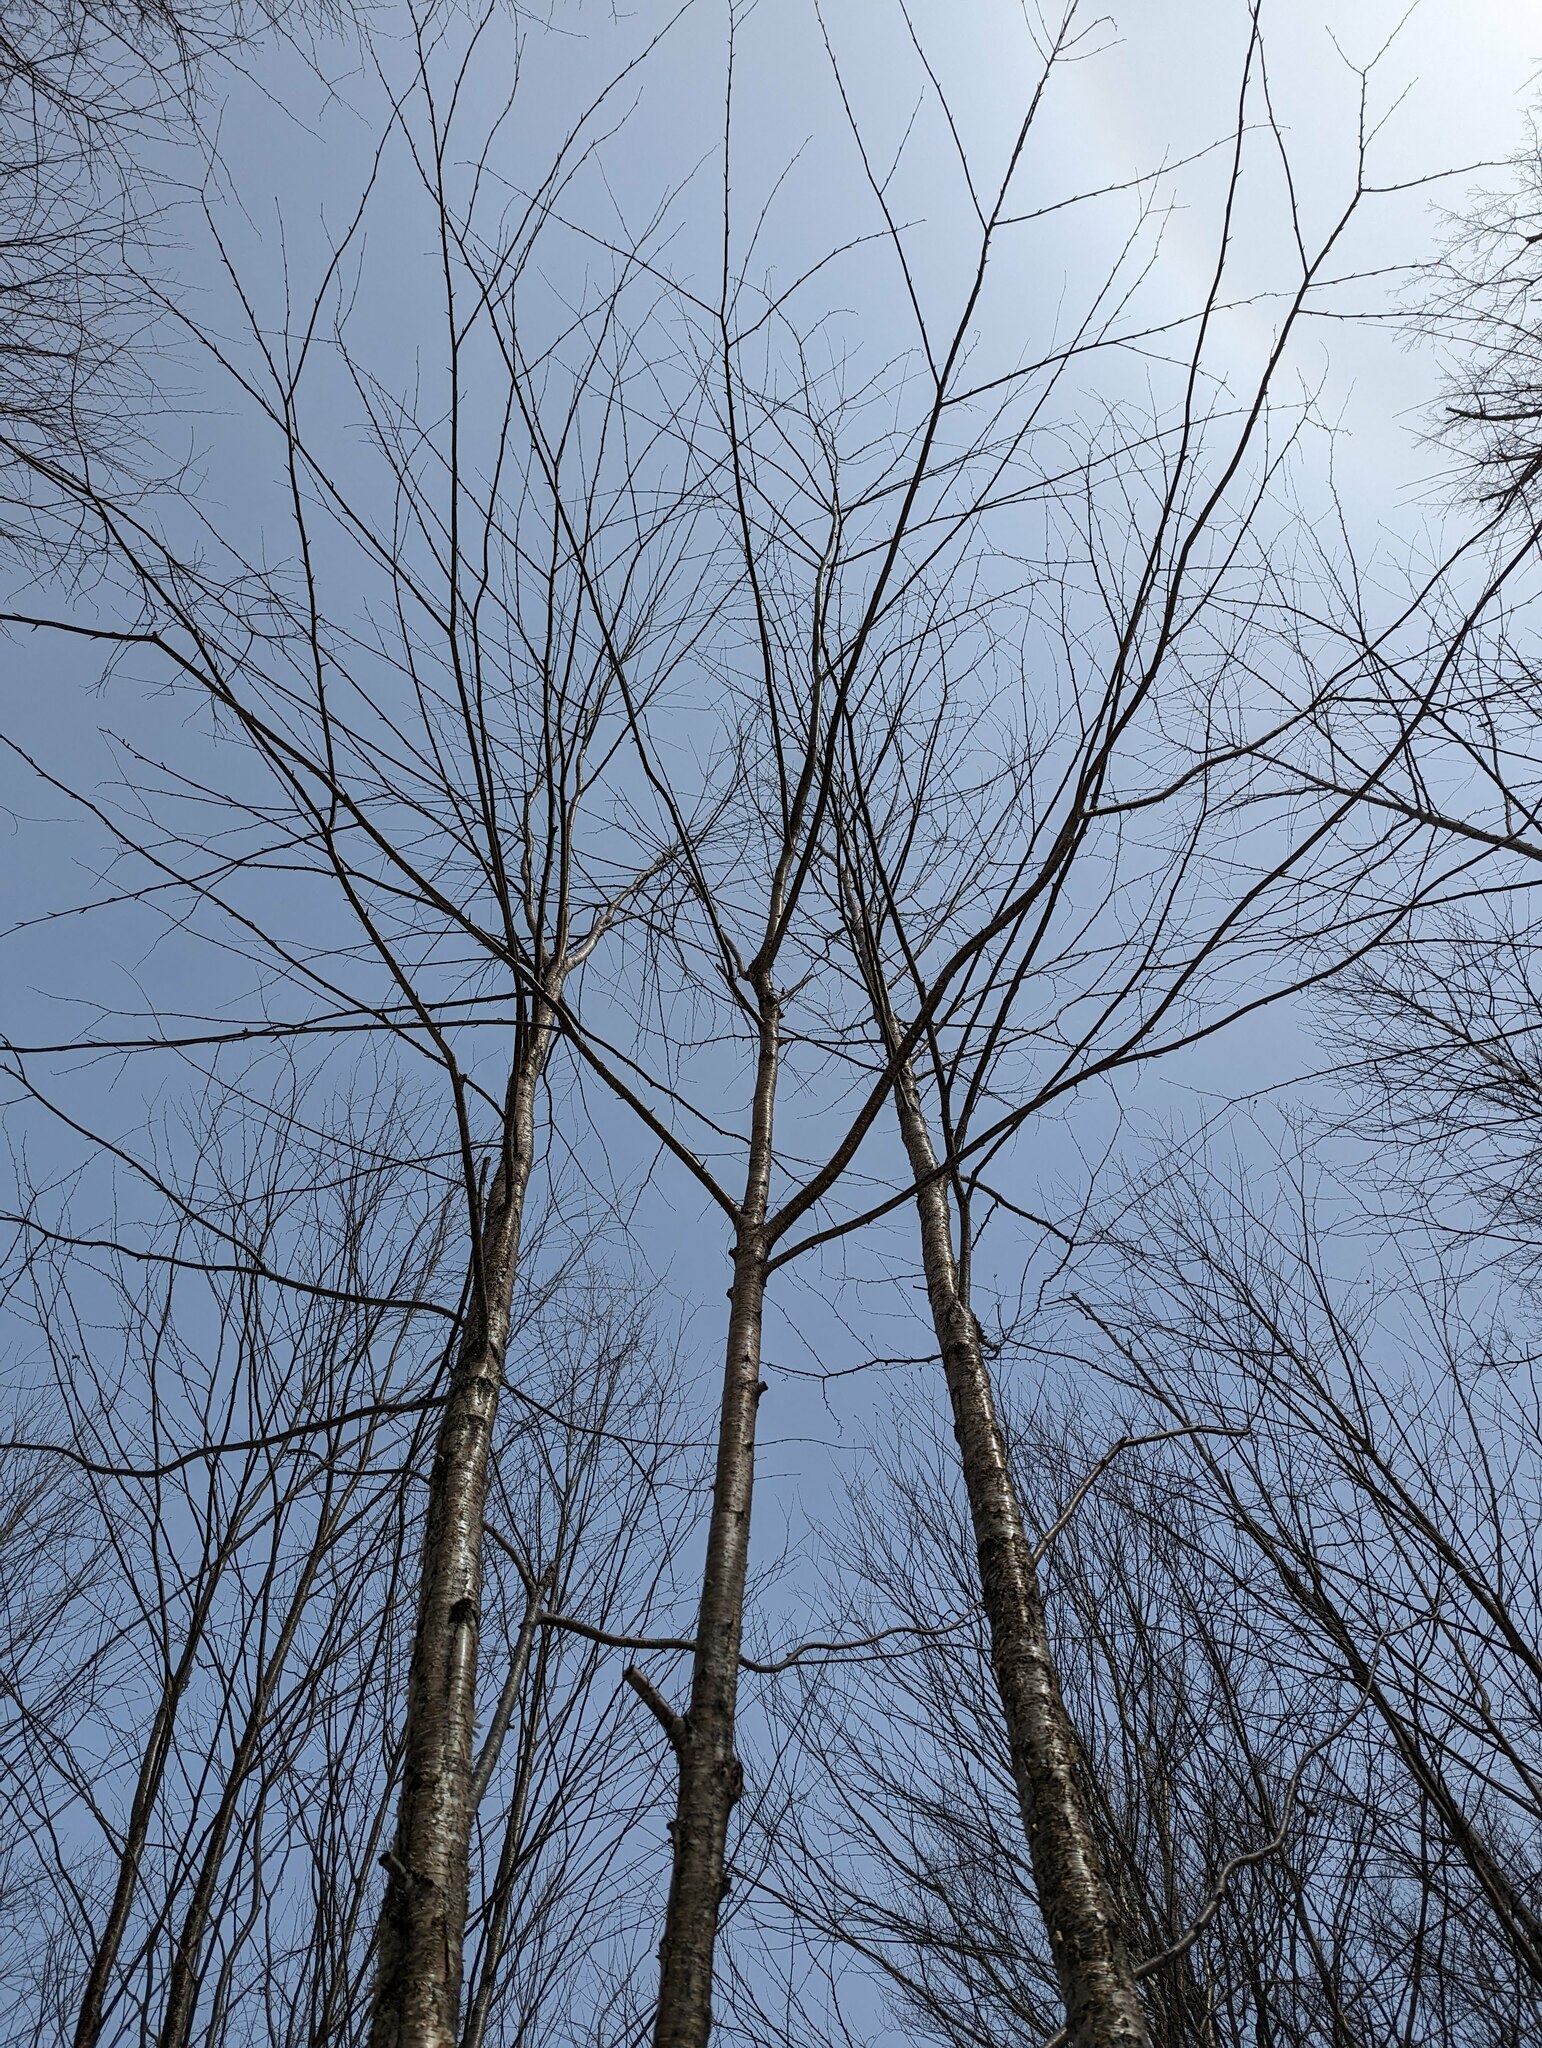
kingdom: Plantae
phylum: Tracheophyta
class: Magnoliopsida
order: Fagales
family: Betulaceae
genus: Betula
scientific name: Betula alleghaniensis
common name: Yellow birch
